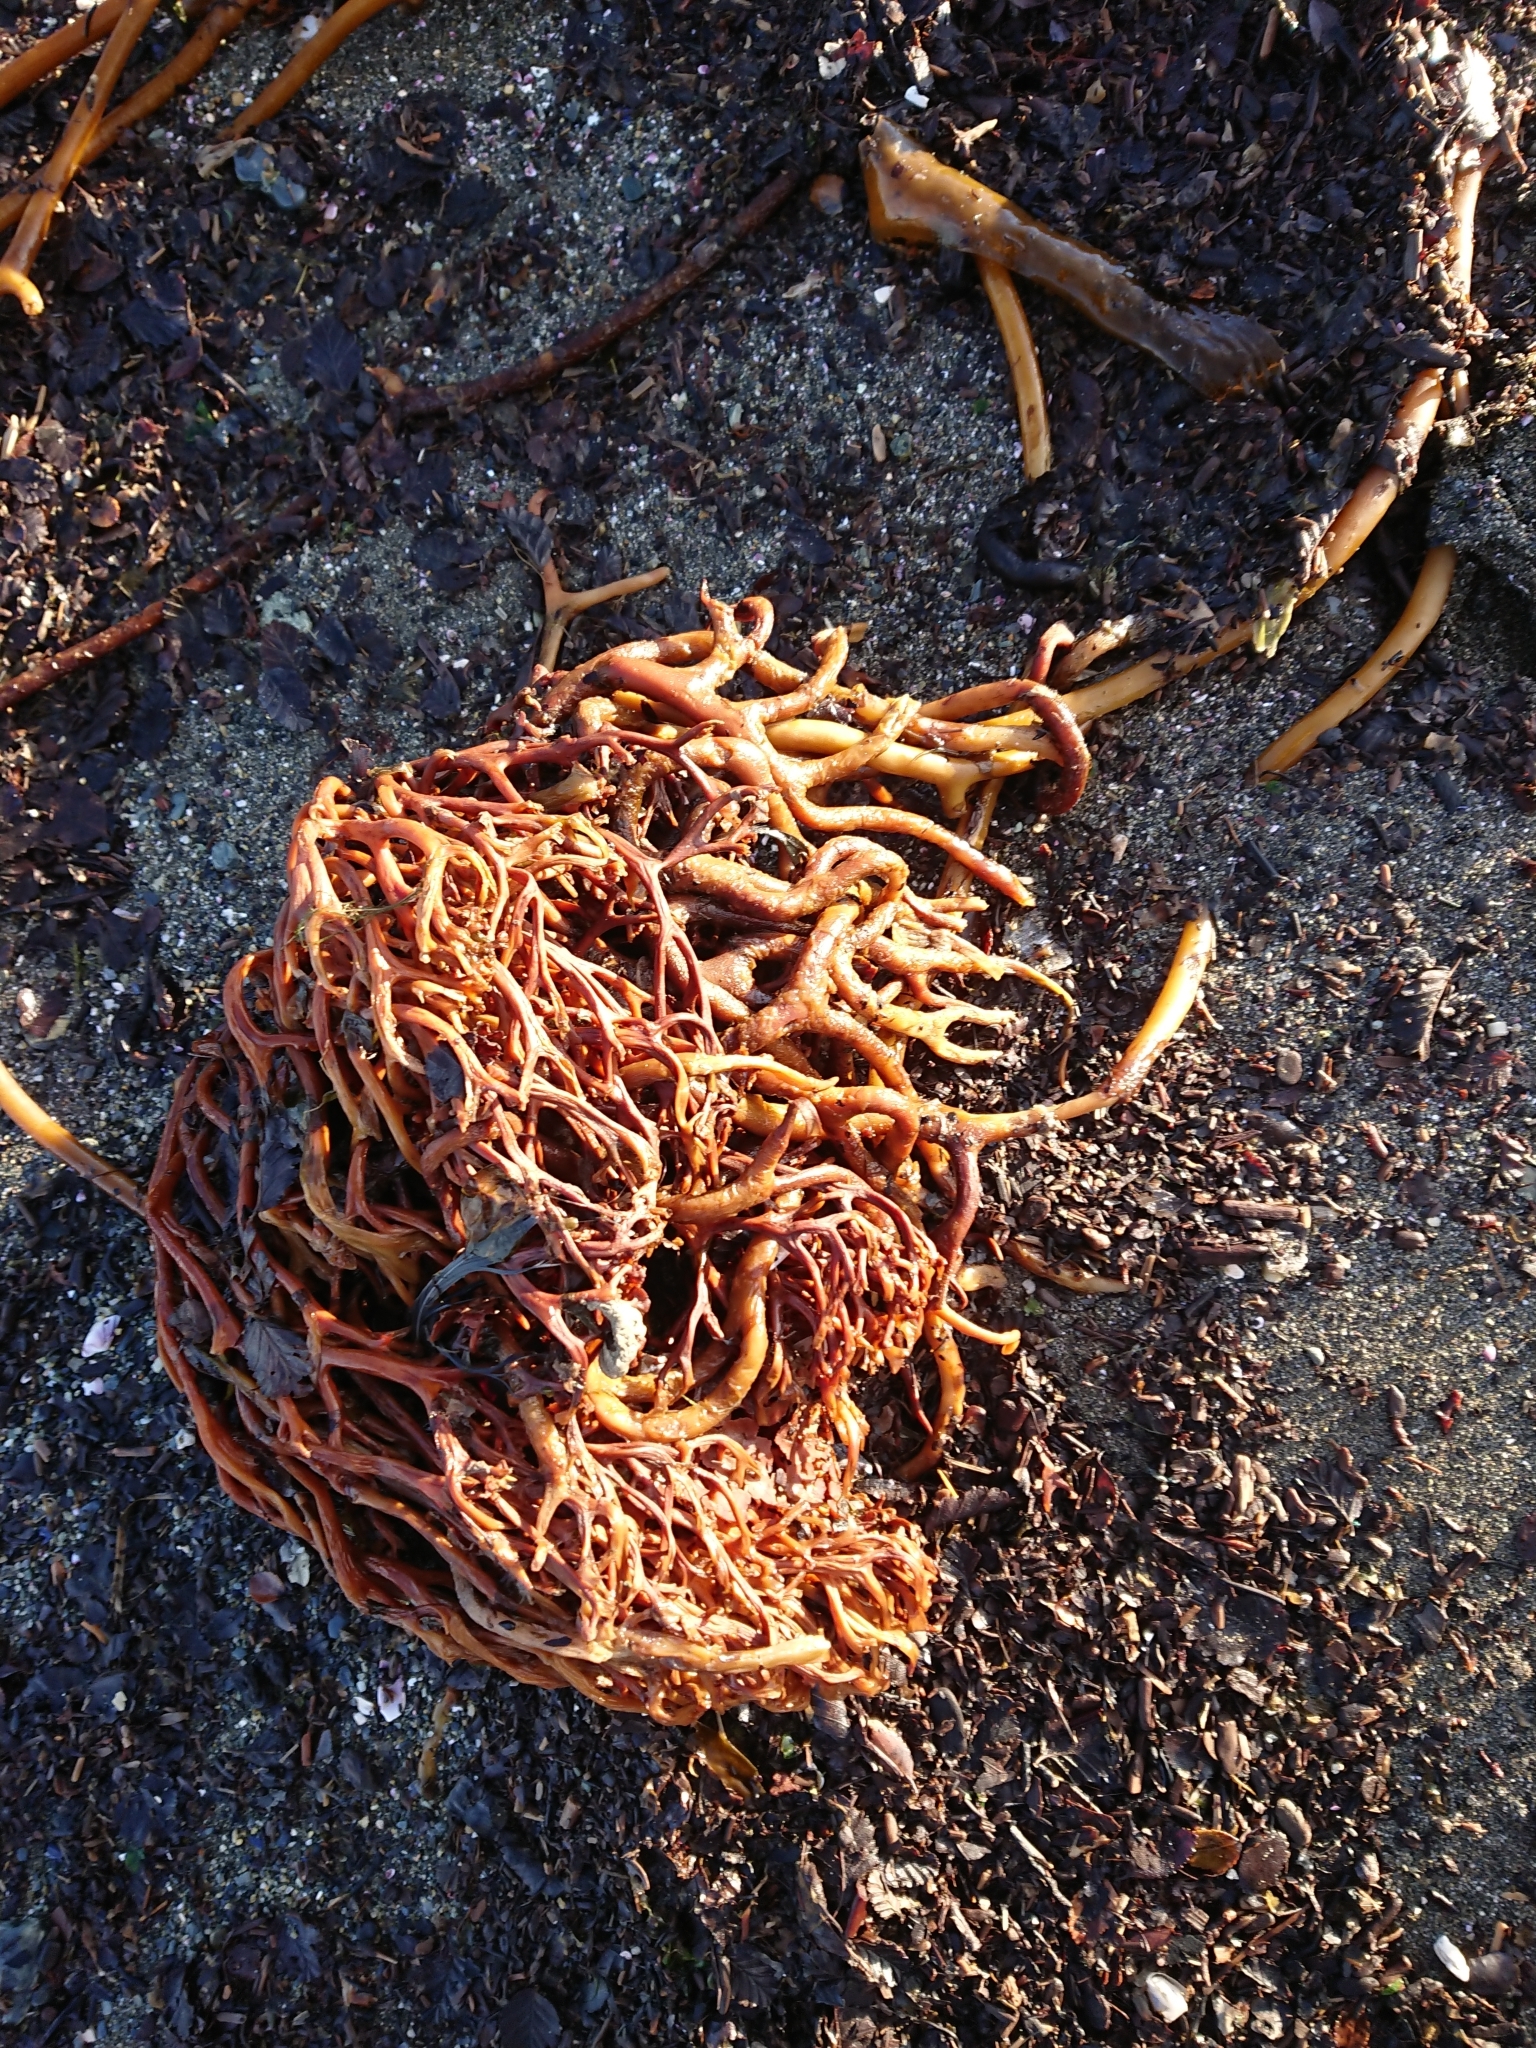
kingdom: Chromista
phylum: Ochrophyta
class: Phaeophyceae
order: Laminariales
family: Laminariaceae
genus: Macrocystis
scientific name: Macrocystis pyrifera
